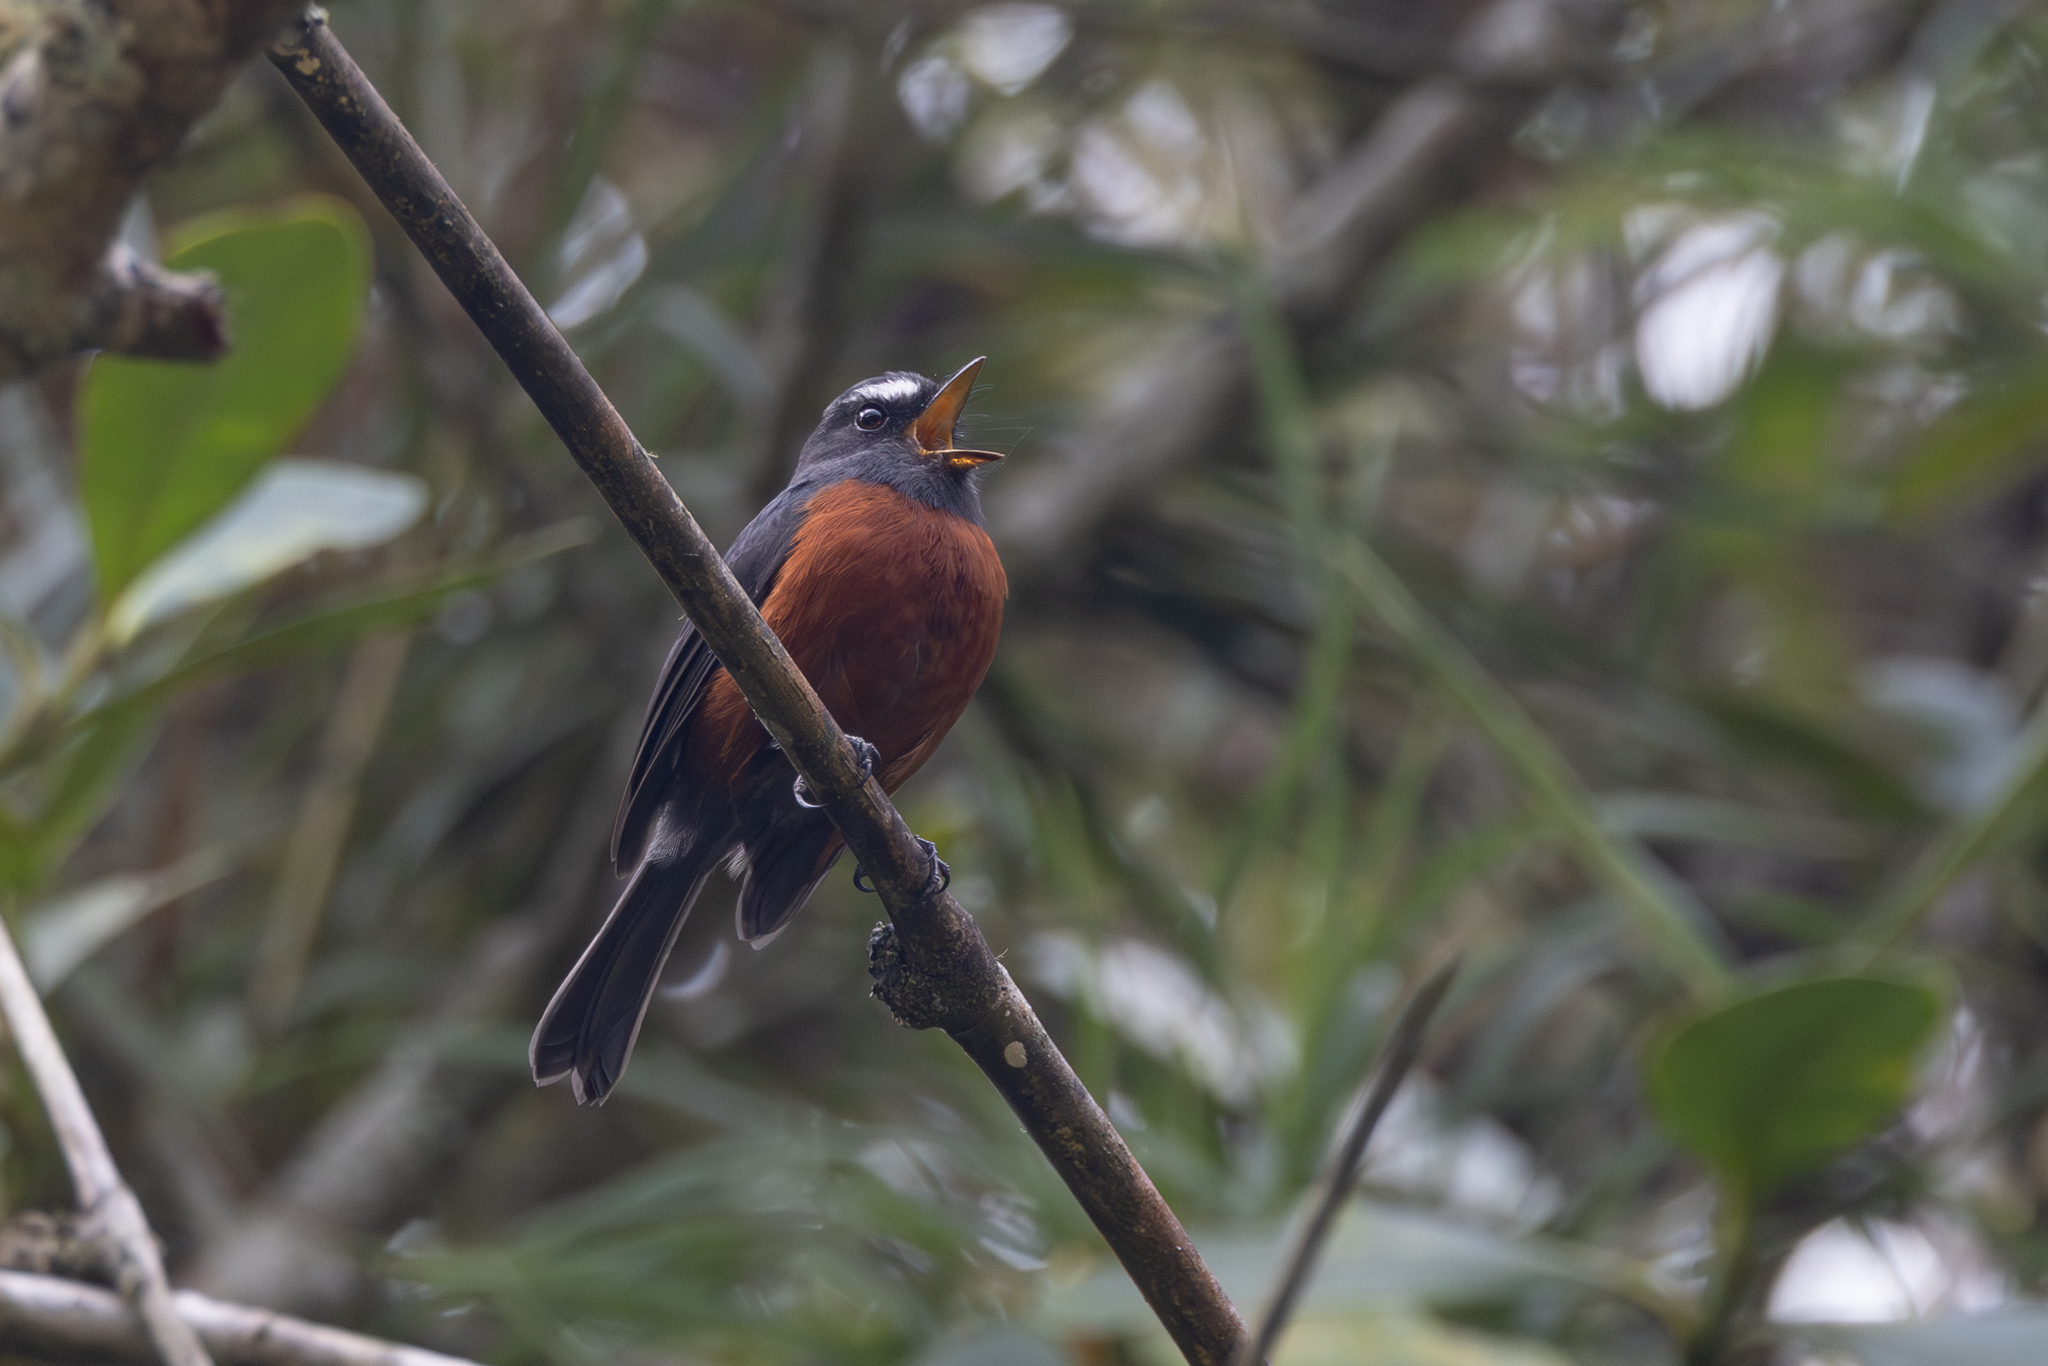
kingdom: Animalia
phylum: Chordata
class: Aves
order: Passeriformes
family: Tyrannidae
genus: Ochthoeca
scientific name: Ochthoeca cinnamomeiventris
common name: Slaty-backed chat-tyrant
